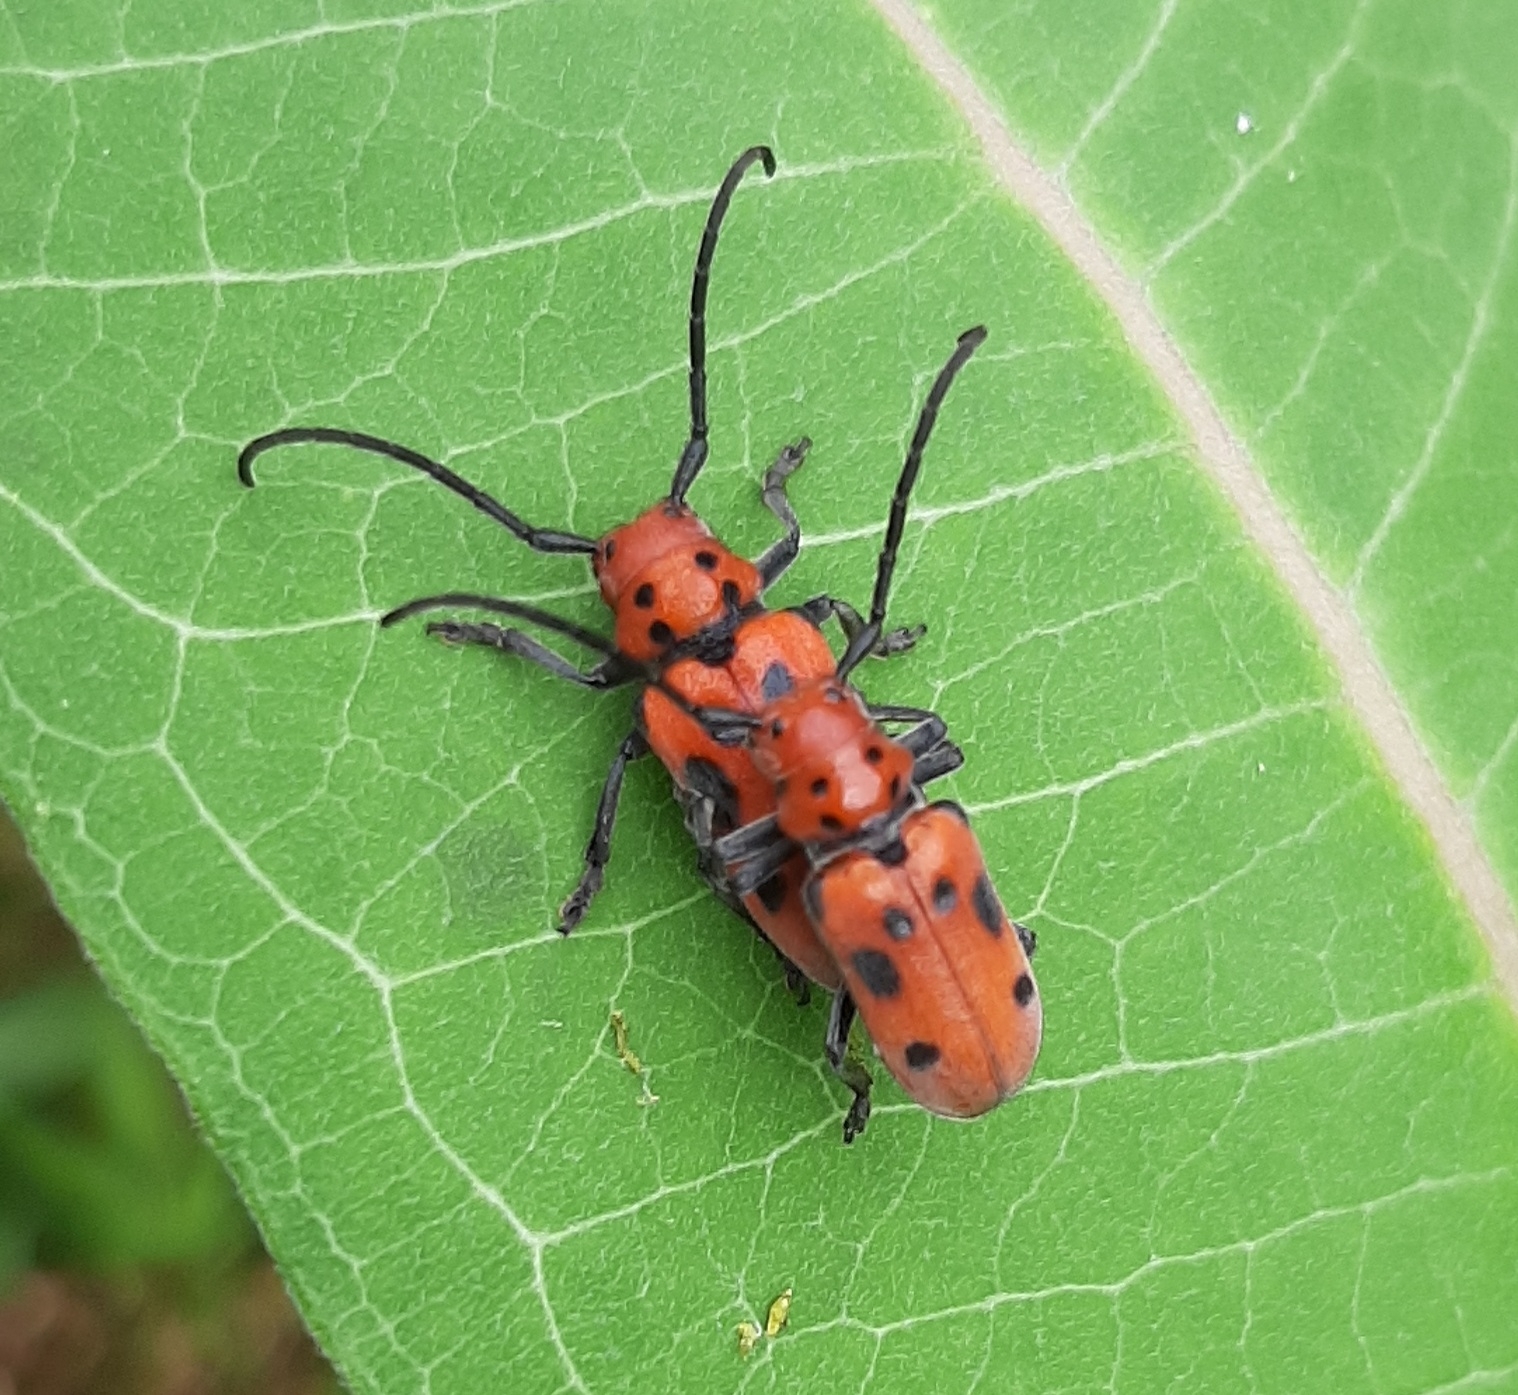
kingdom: Animalia
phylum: Arthropoda
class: Insecta
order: Coleoptera
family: Cerambycidae
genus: Tetraopes
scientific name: Tetraopes tetrophthalmus
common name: Red milkweed beetle
